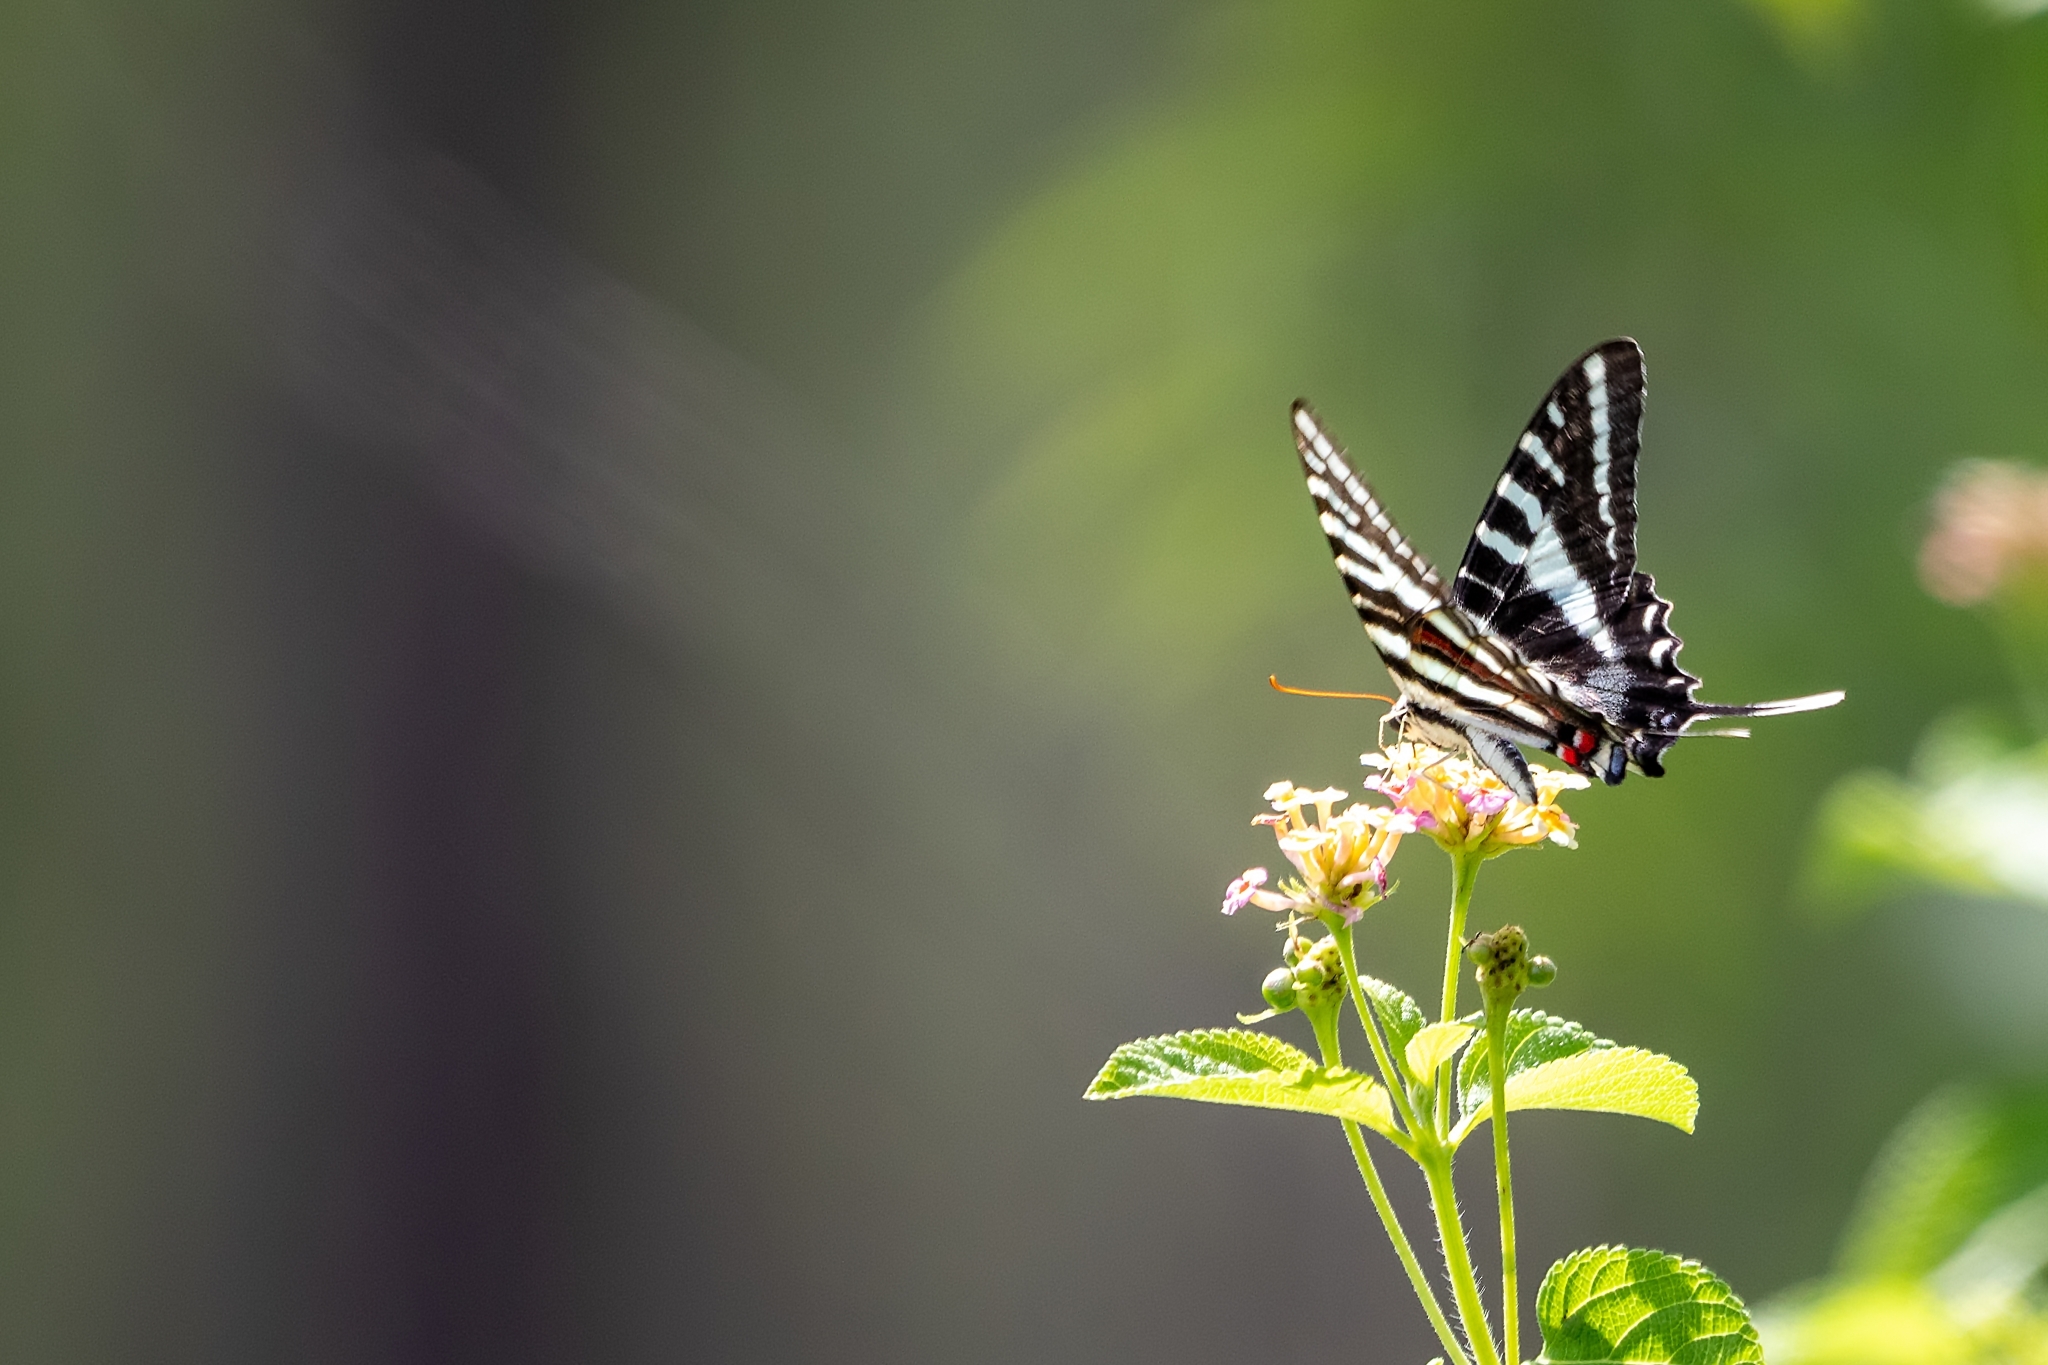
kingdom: Animalia
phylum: Arthropoda
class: Insecta
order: Lepidoptera
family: Papilionidae
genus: Protographium
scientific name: Protographium marcellus
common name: Zebra swallowtail
